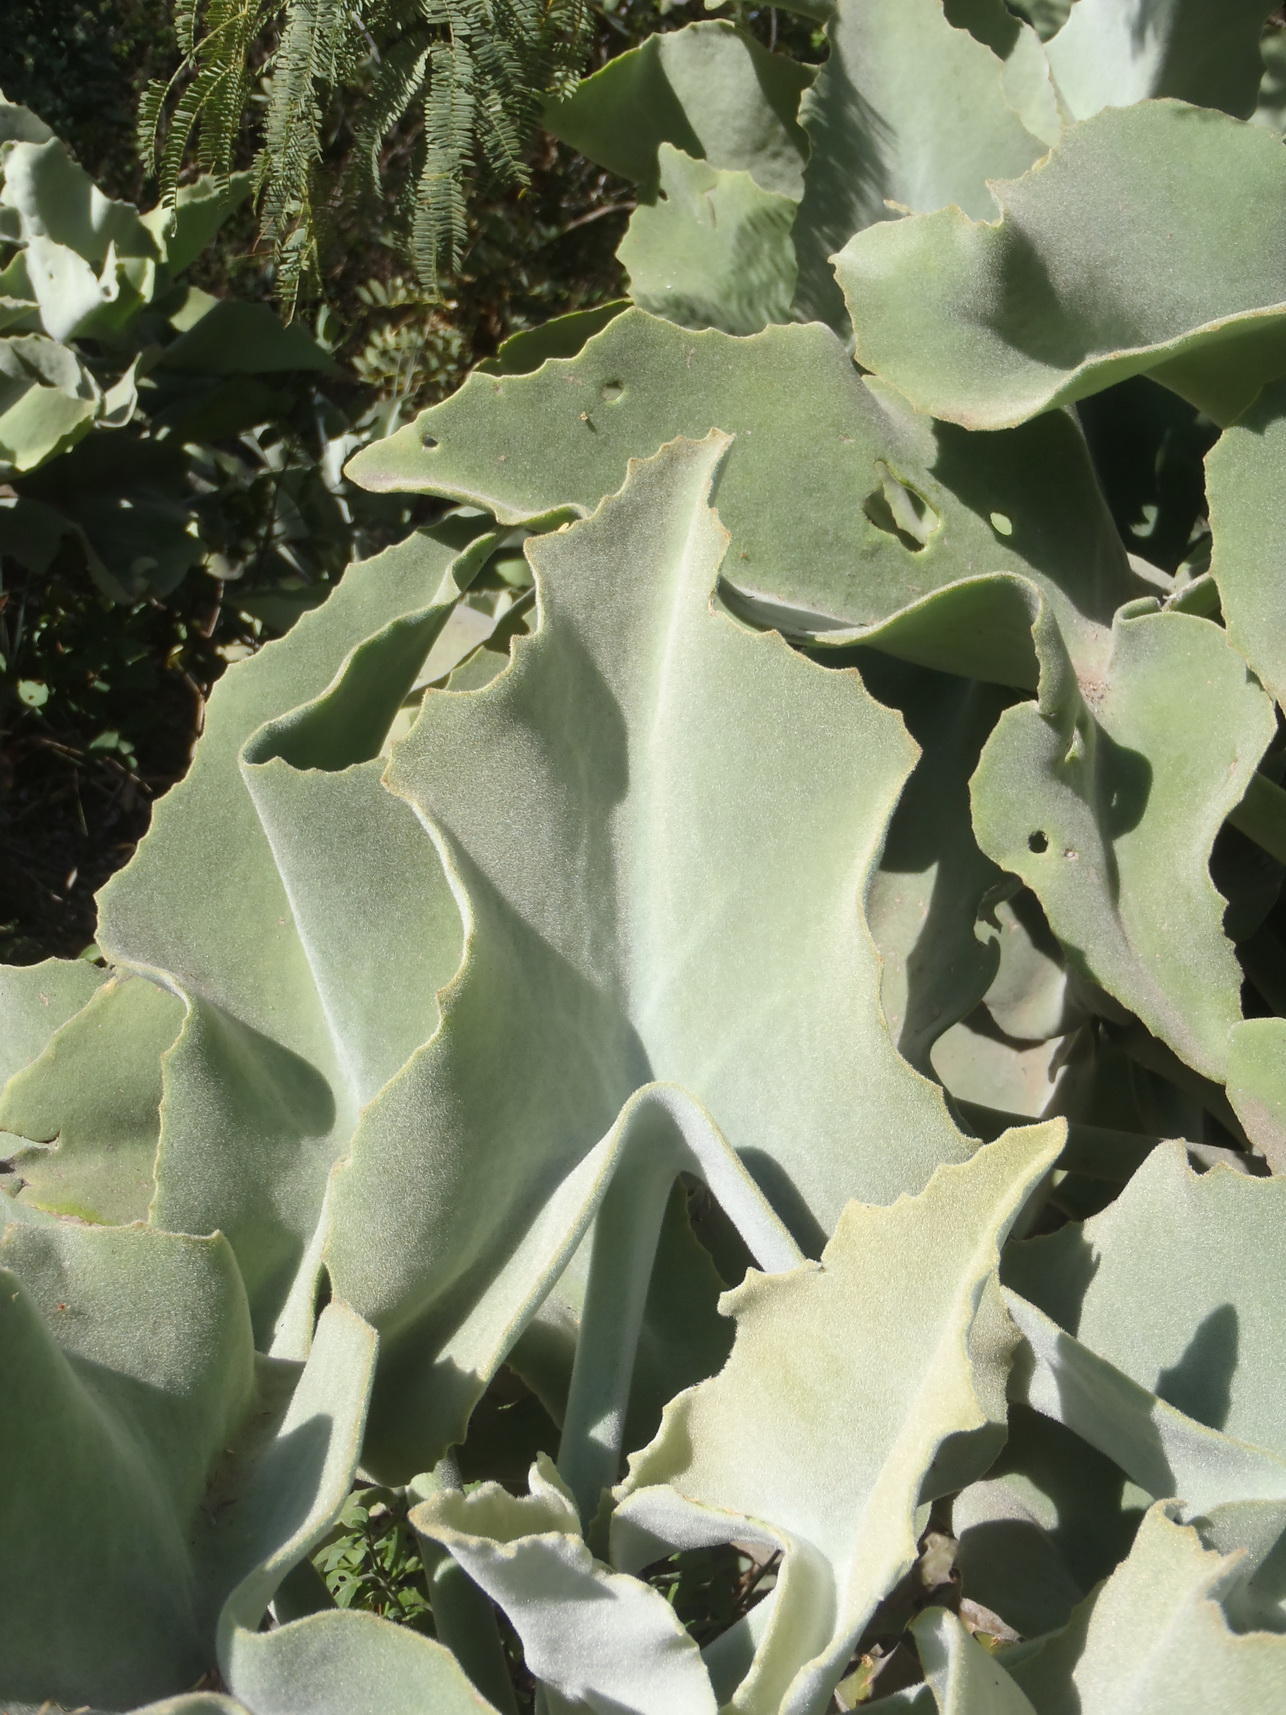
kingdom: Plantae
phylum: Tracheophyta
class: Magnoliopsida
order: Saxifragales
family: Crassulaceae
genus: Kalanchoe
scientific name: Kalanchoe beharensis
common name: Velvet leaf
